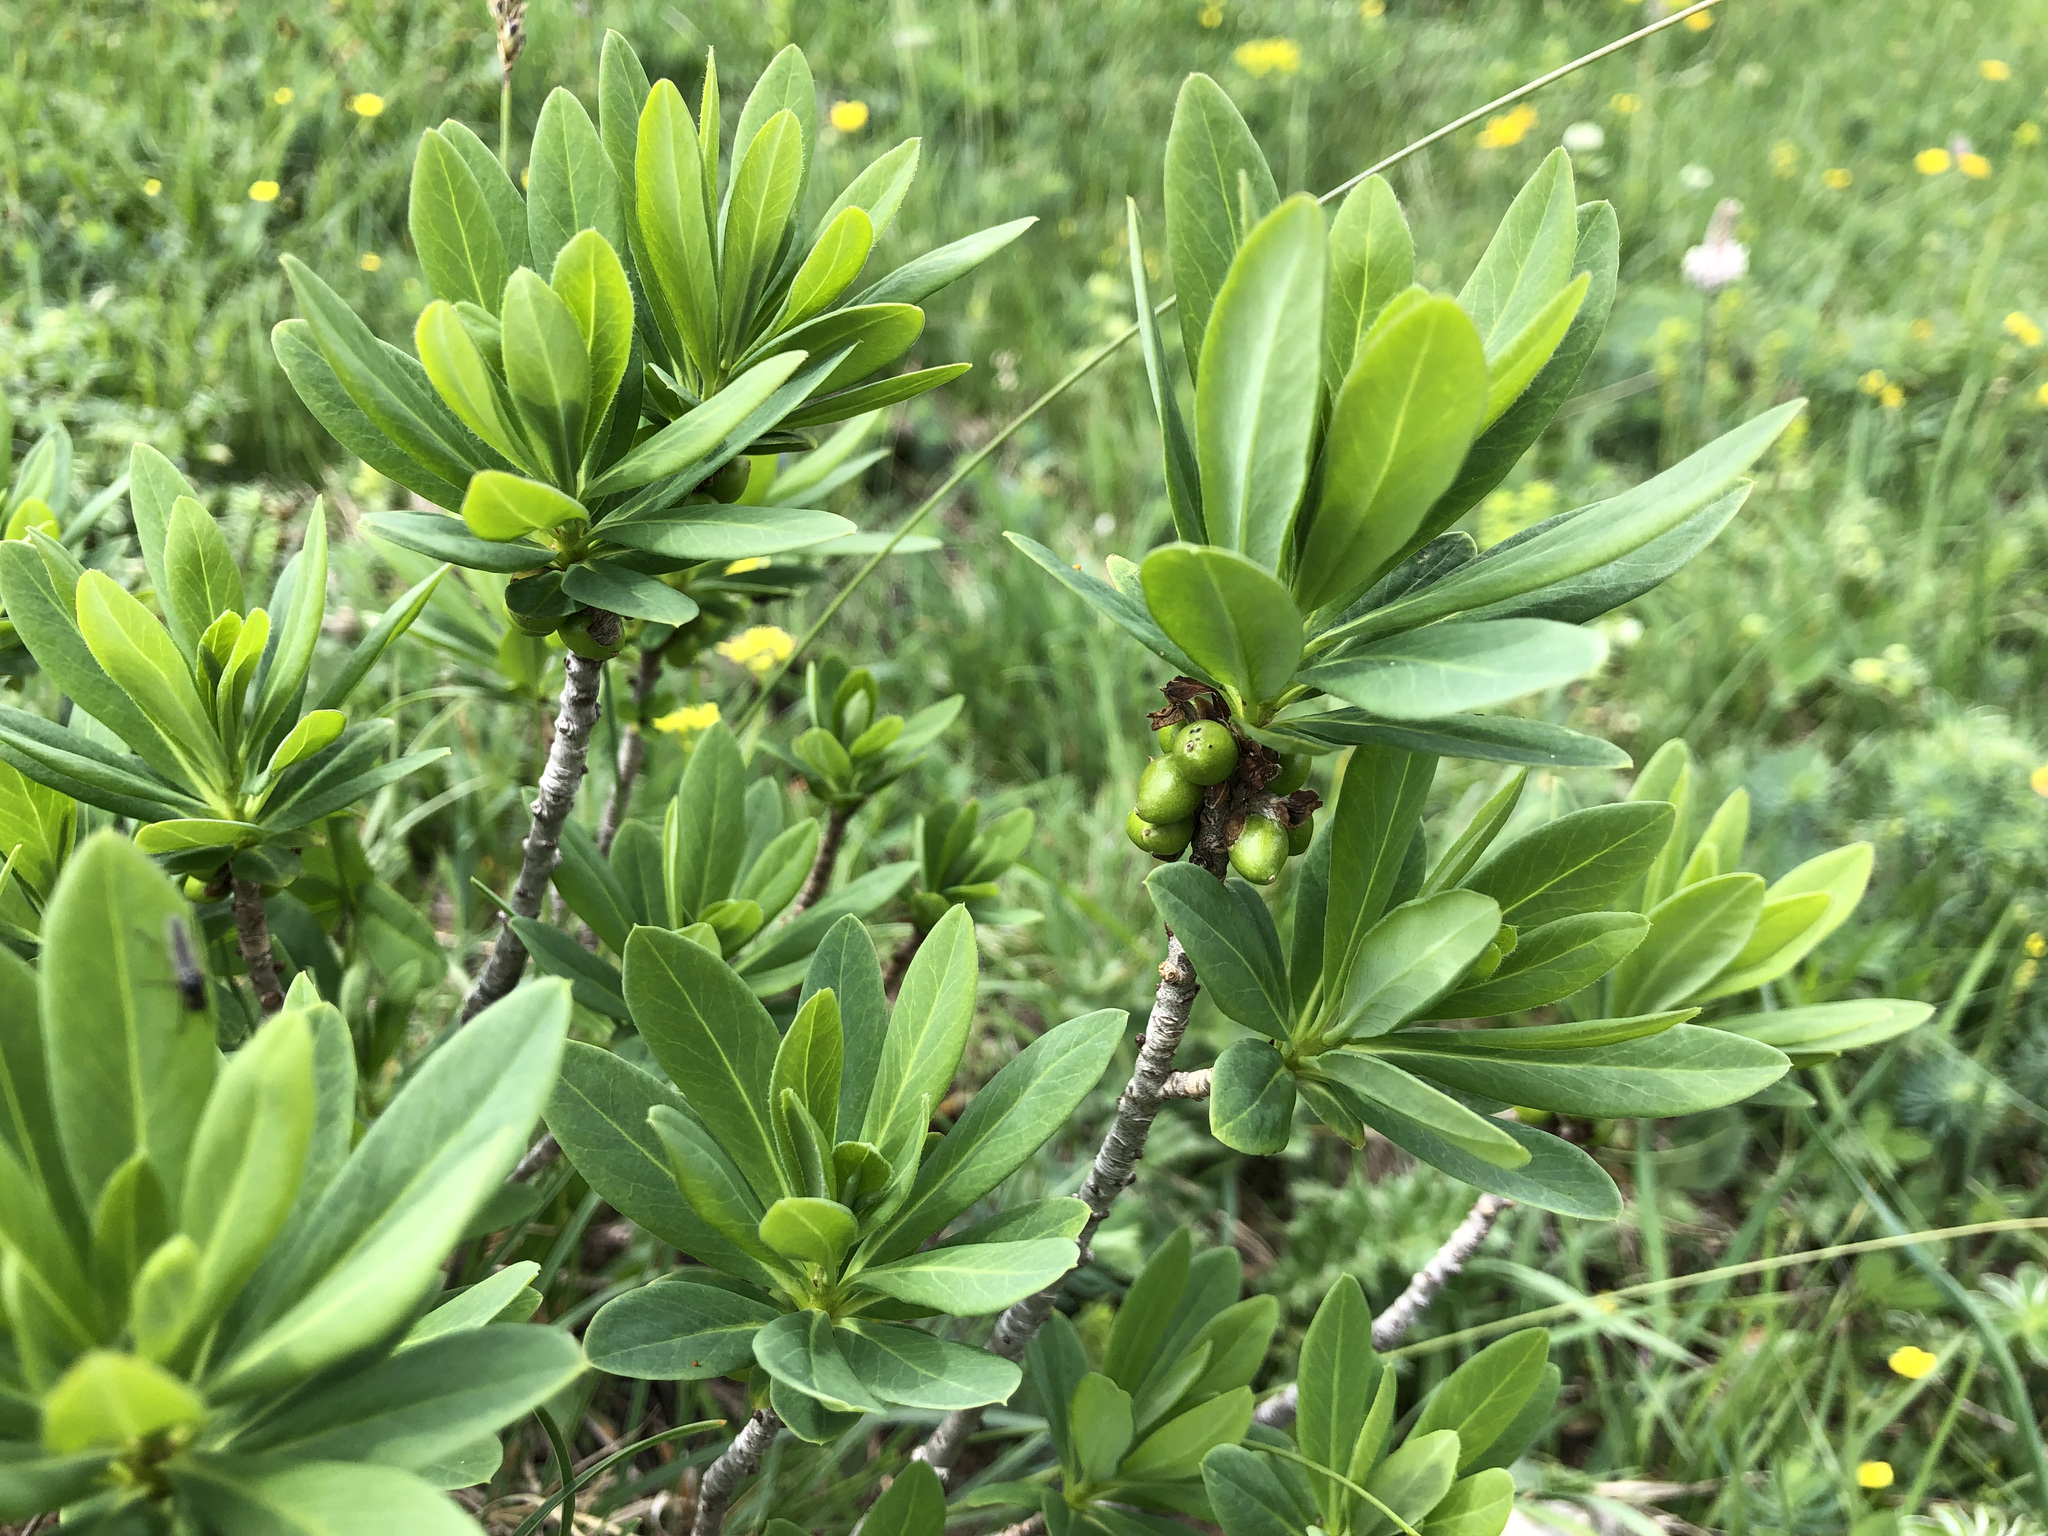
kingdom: Plantae
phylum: Tracheophyta
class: Magnoliopsida
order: Malvales
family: Thymelaeaceae
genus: Daphne
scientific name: Daphne mezereum
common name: Mezereon
